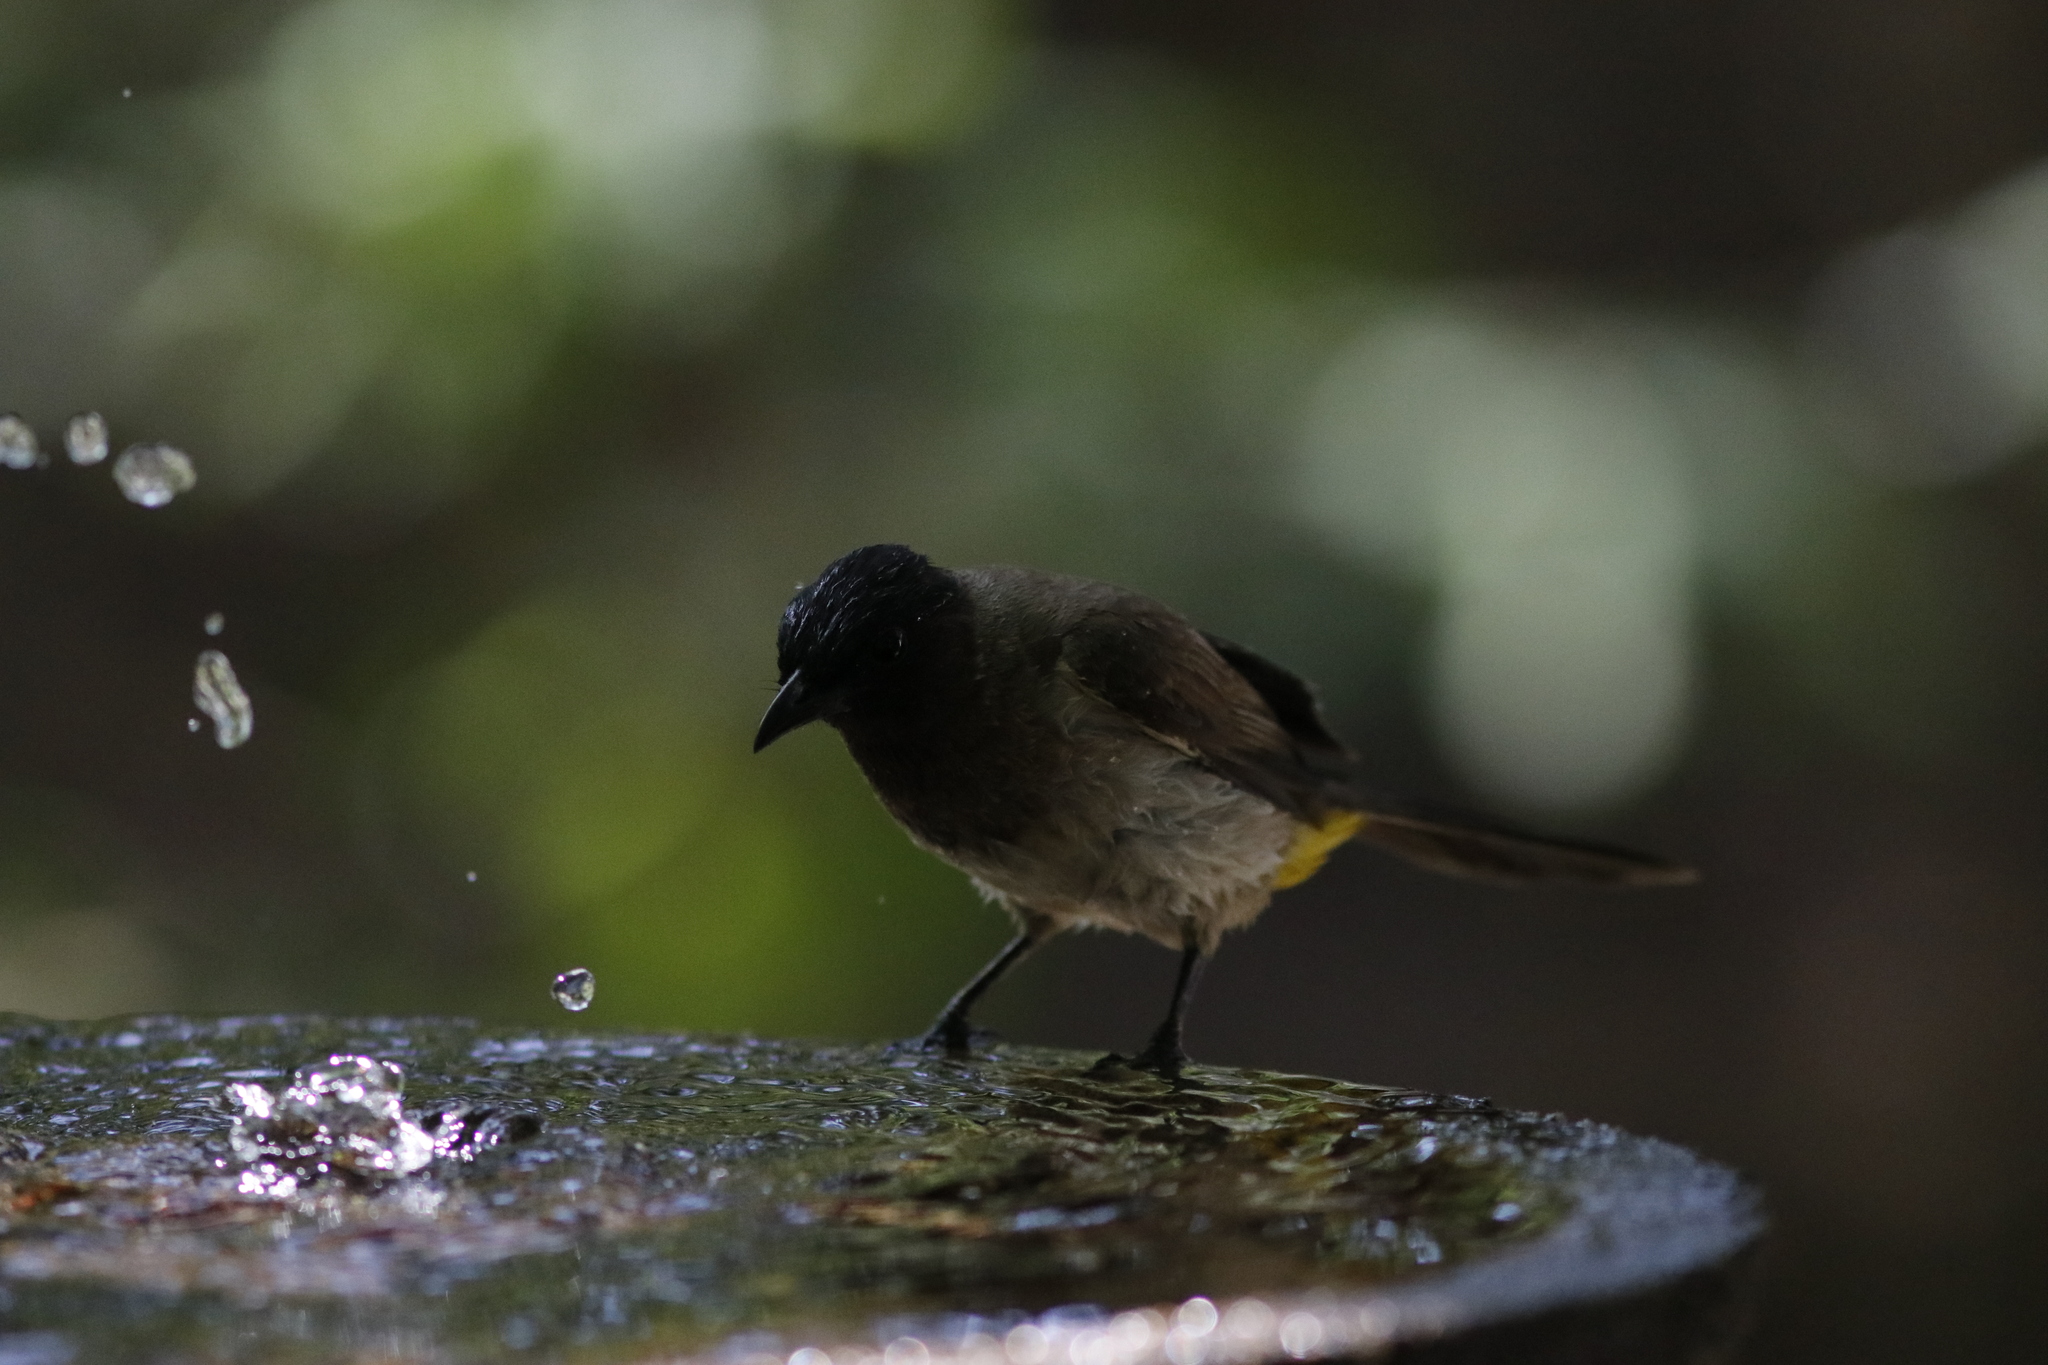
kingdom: Animalia
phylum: Chordata
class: Aves
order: Passeriformes
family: Pycnonotidae
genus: Pycnonotus
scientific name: Pycnonotus barbatus
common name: Common bulbul
